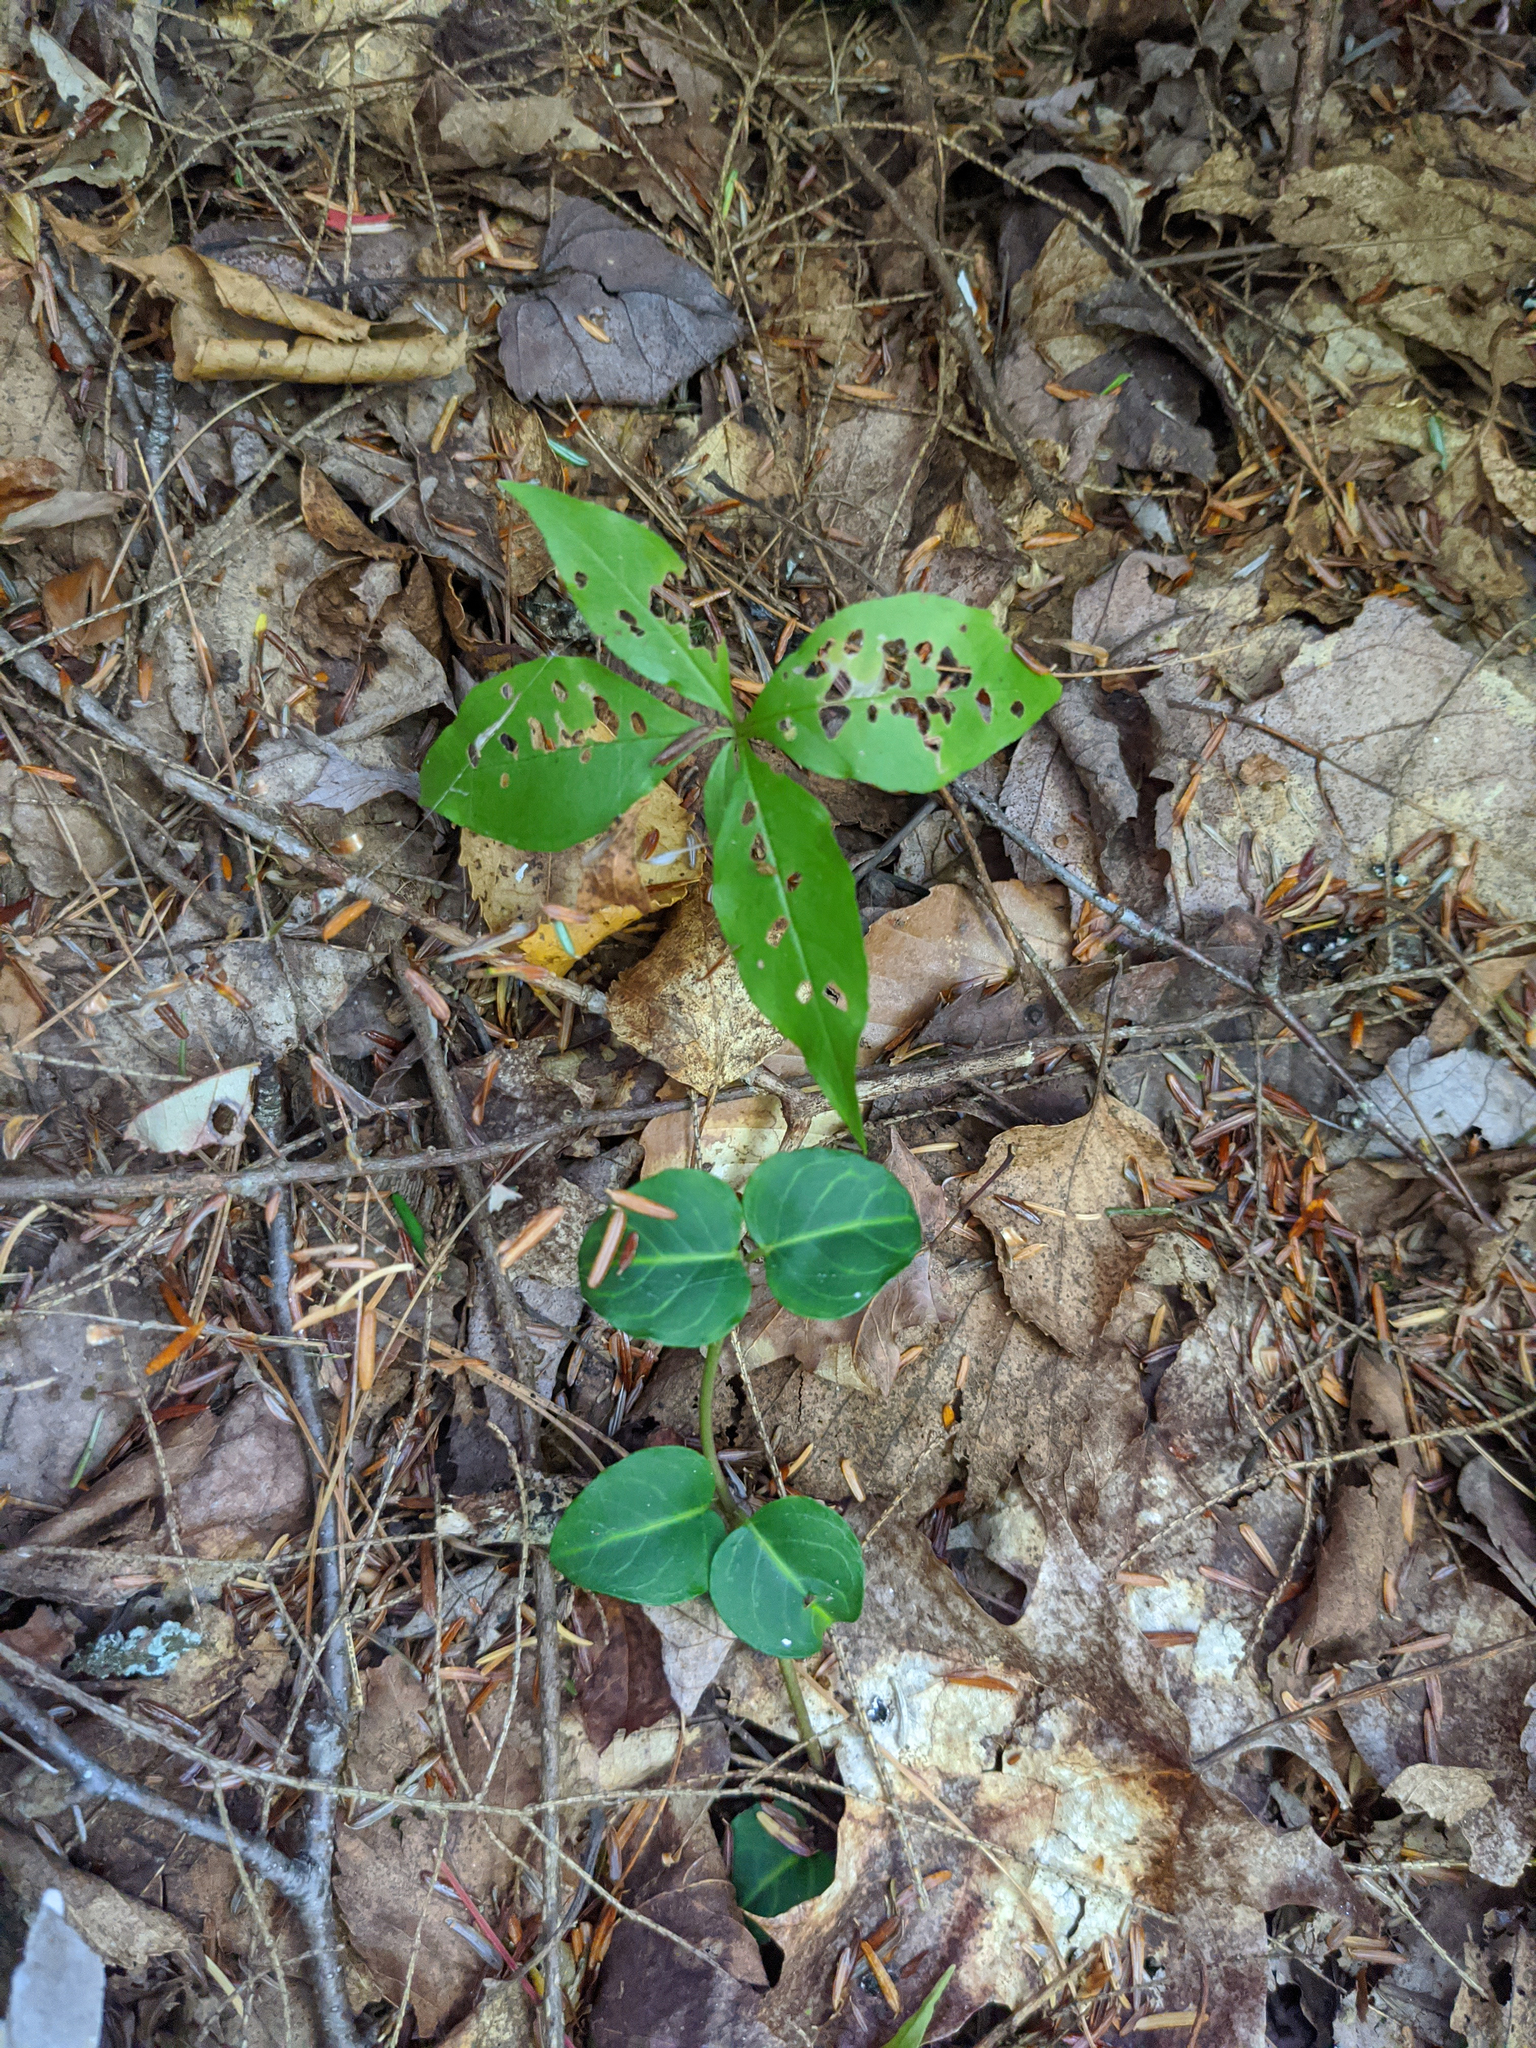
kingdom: Plantae
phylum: Tracheophyta
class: Magnoliopsida
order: Gentianales
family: Rubiaceae
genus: Mitchella
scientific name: Mitchella repens
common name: Partridge-berry
